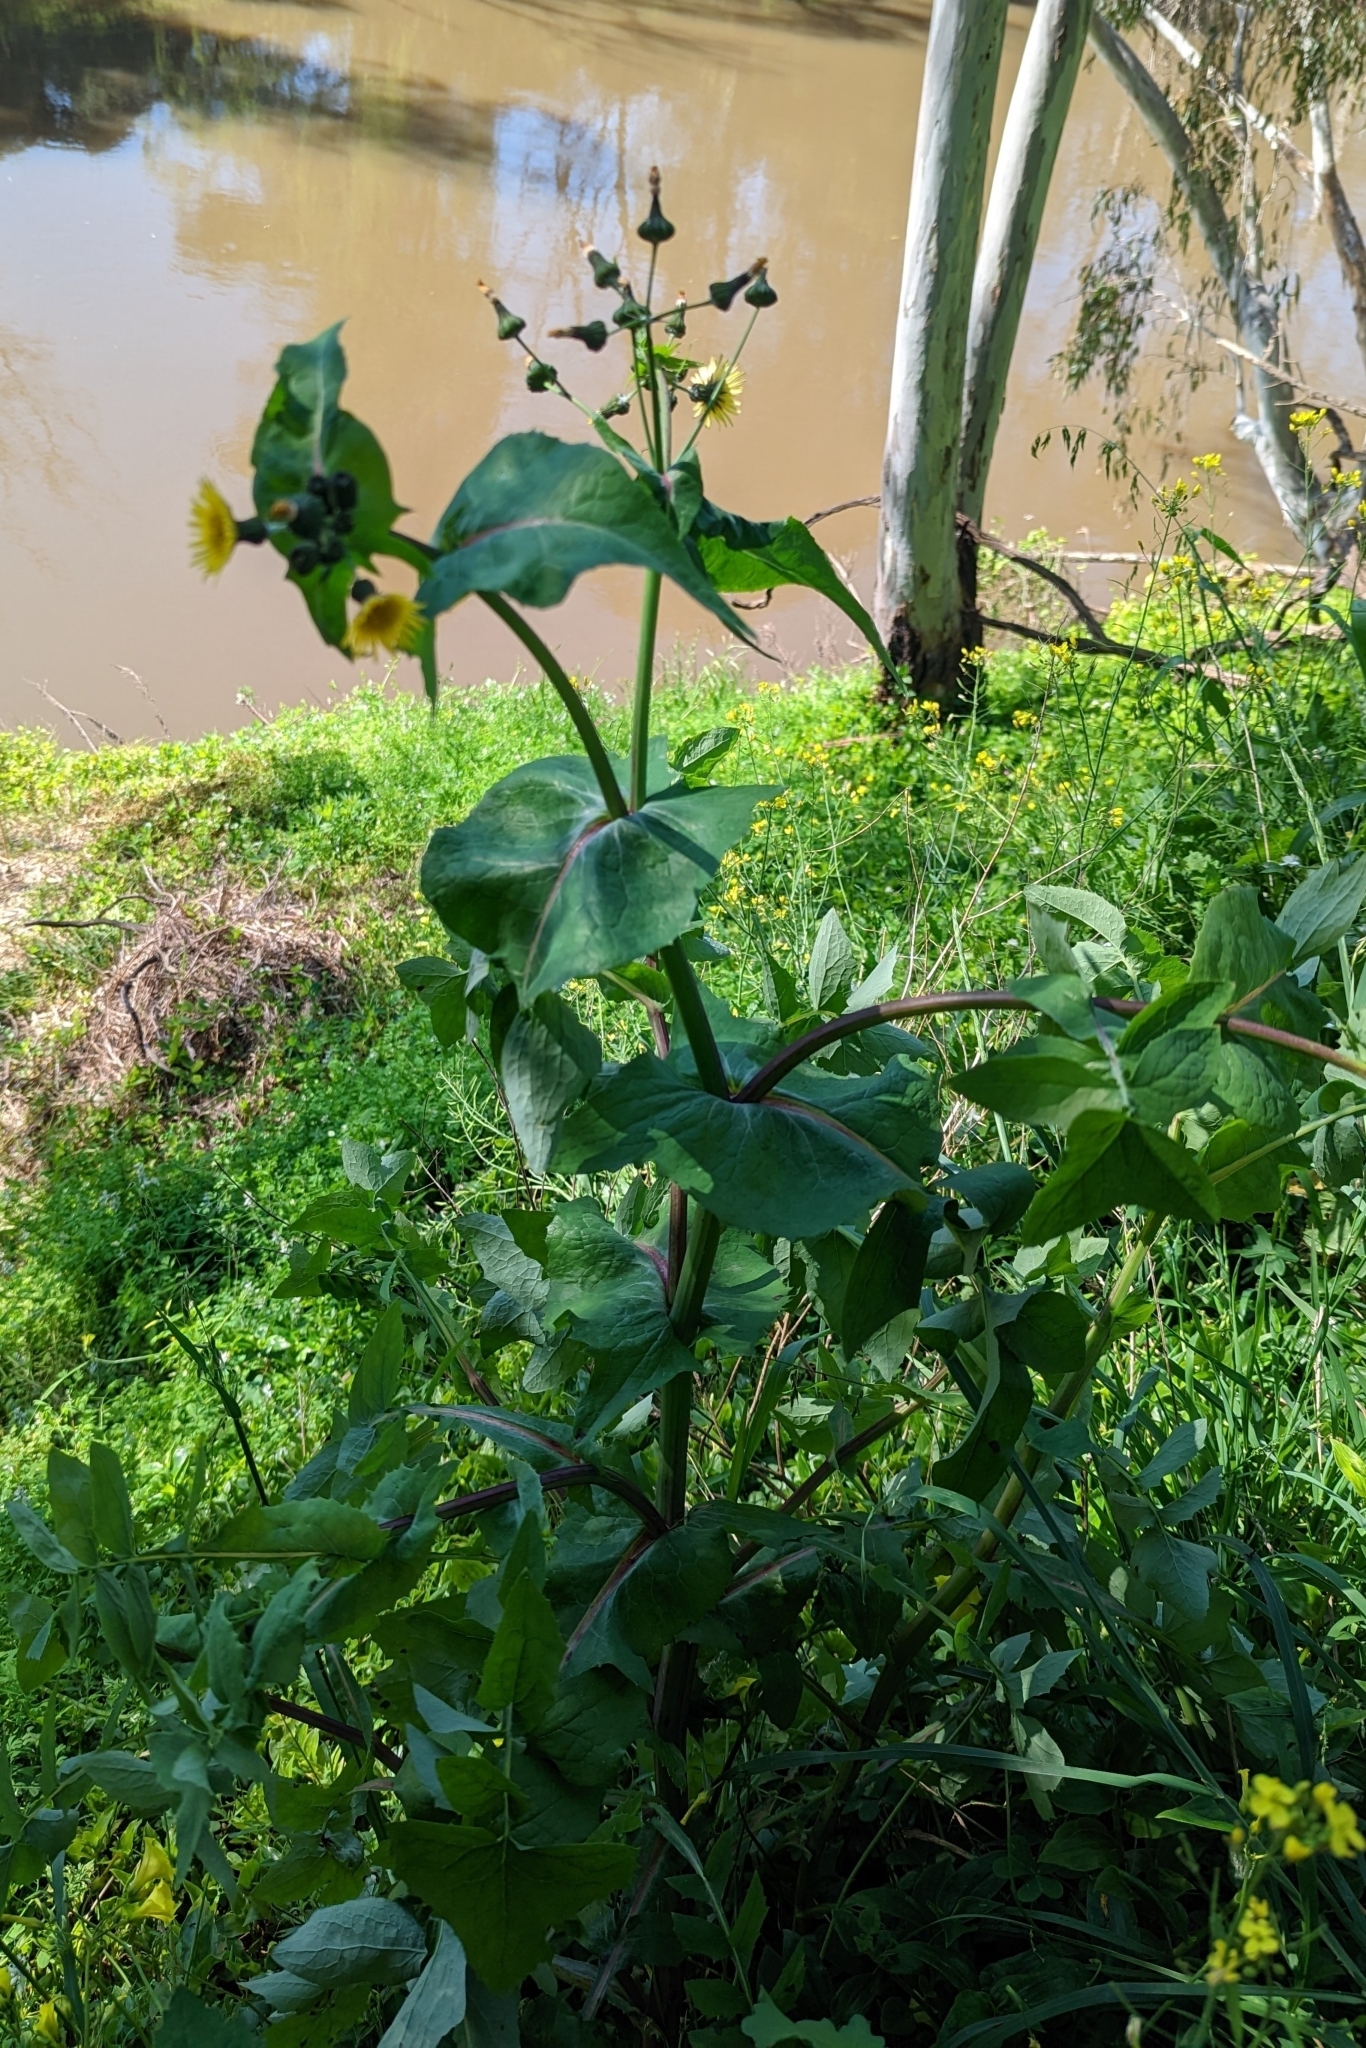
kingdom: Plantae
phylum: Tracheophyta
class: Magnoliopsida
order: Asterales
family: Asteraceae
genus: Sonchus
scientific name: Sonchus oleraceus
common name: Common sowthistle
